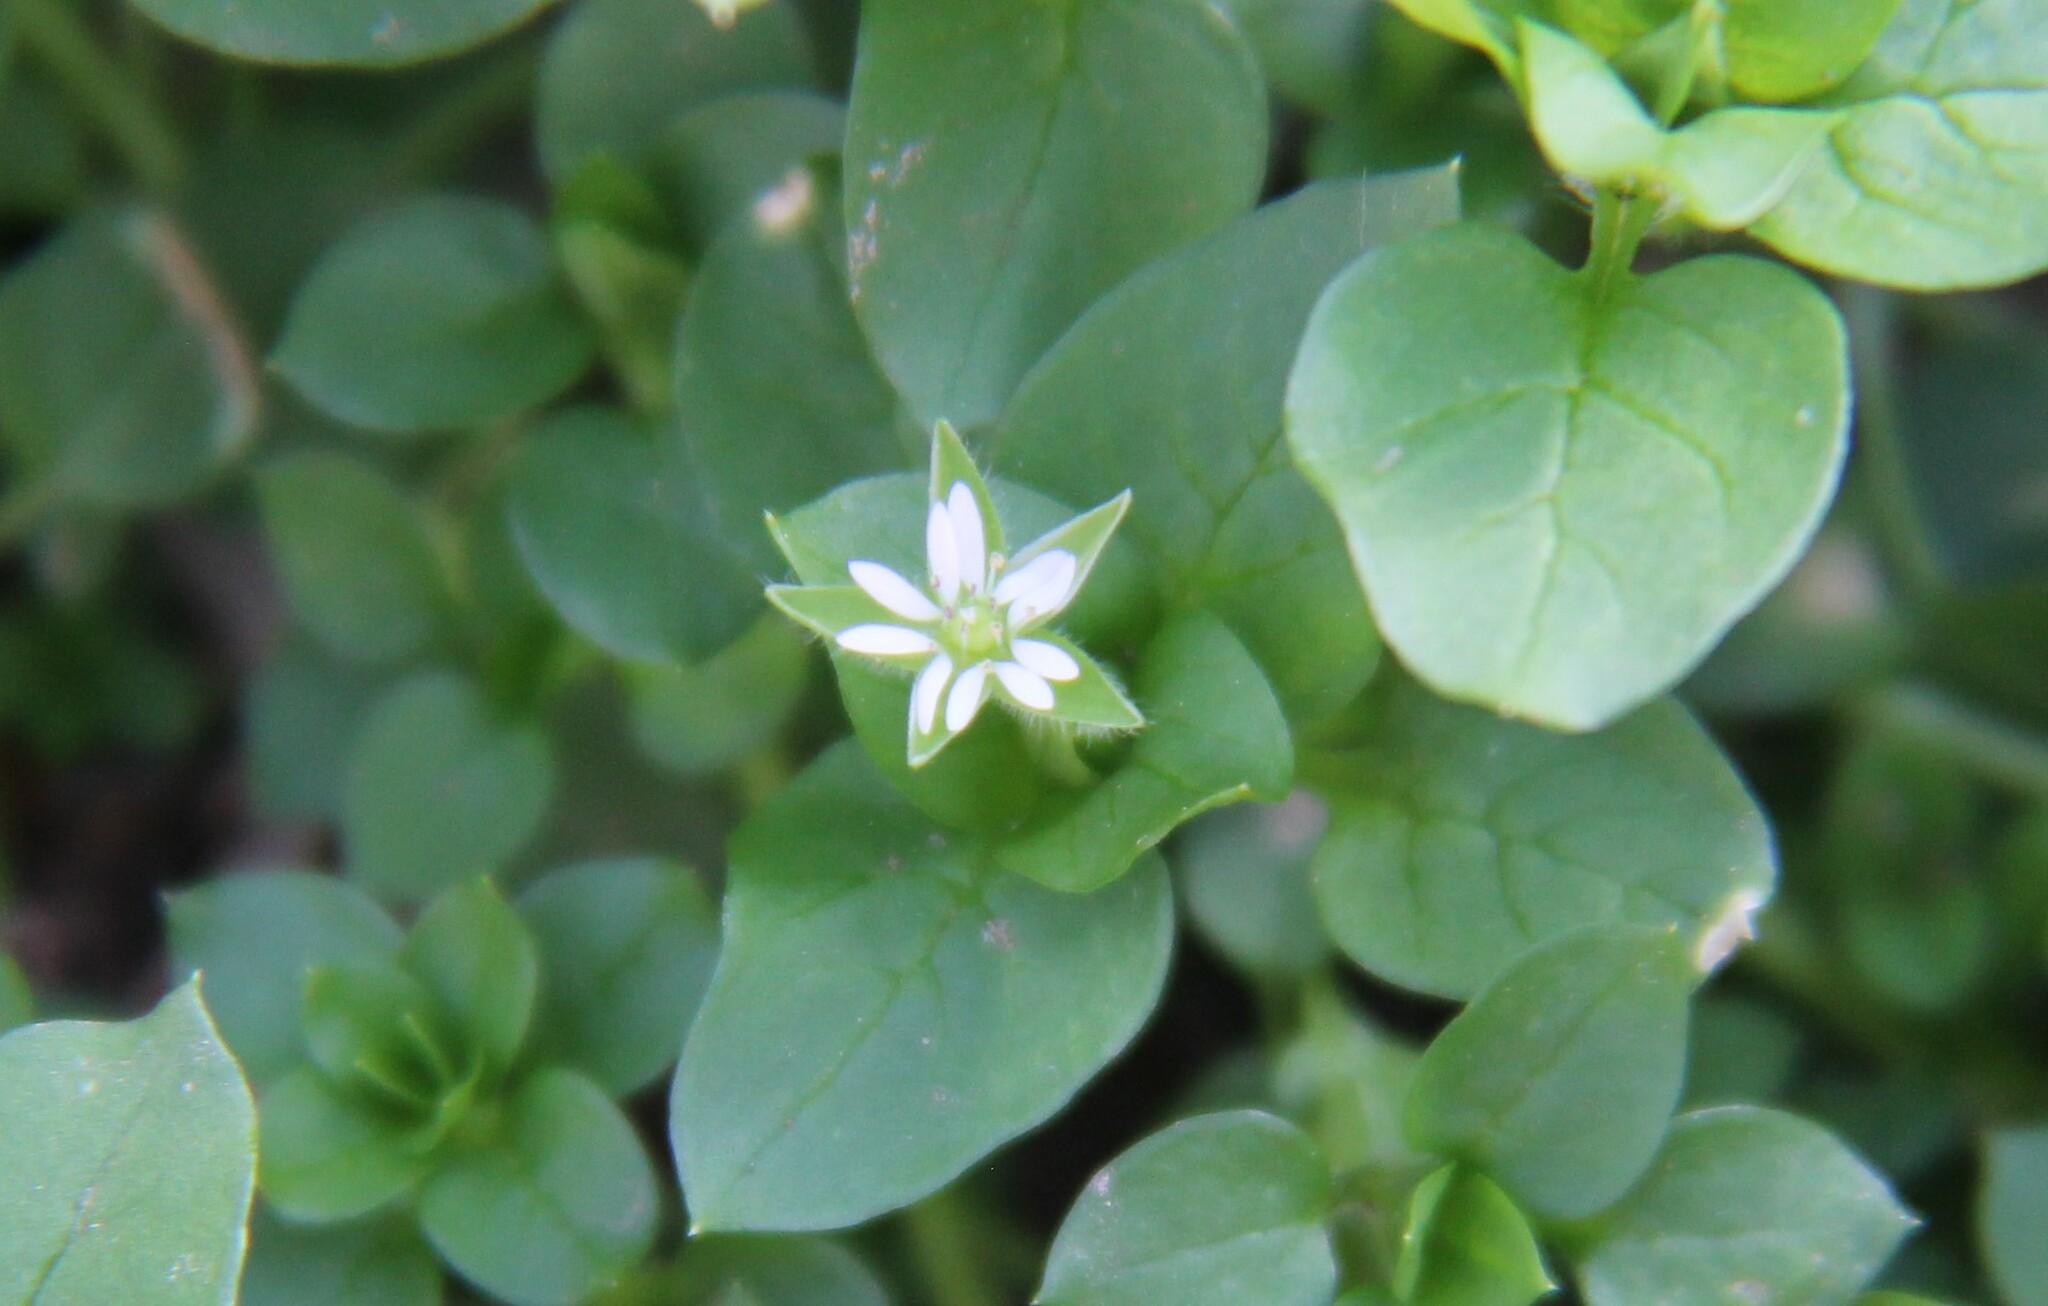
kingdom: Plantae
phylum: Tracheophyta
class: Magnoliopsida
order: Caryophyllales
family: Caryophyllaceae
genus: Stellaria
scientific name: Stellaria media
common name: Common chickweed
